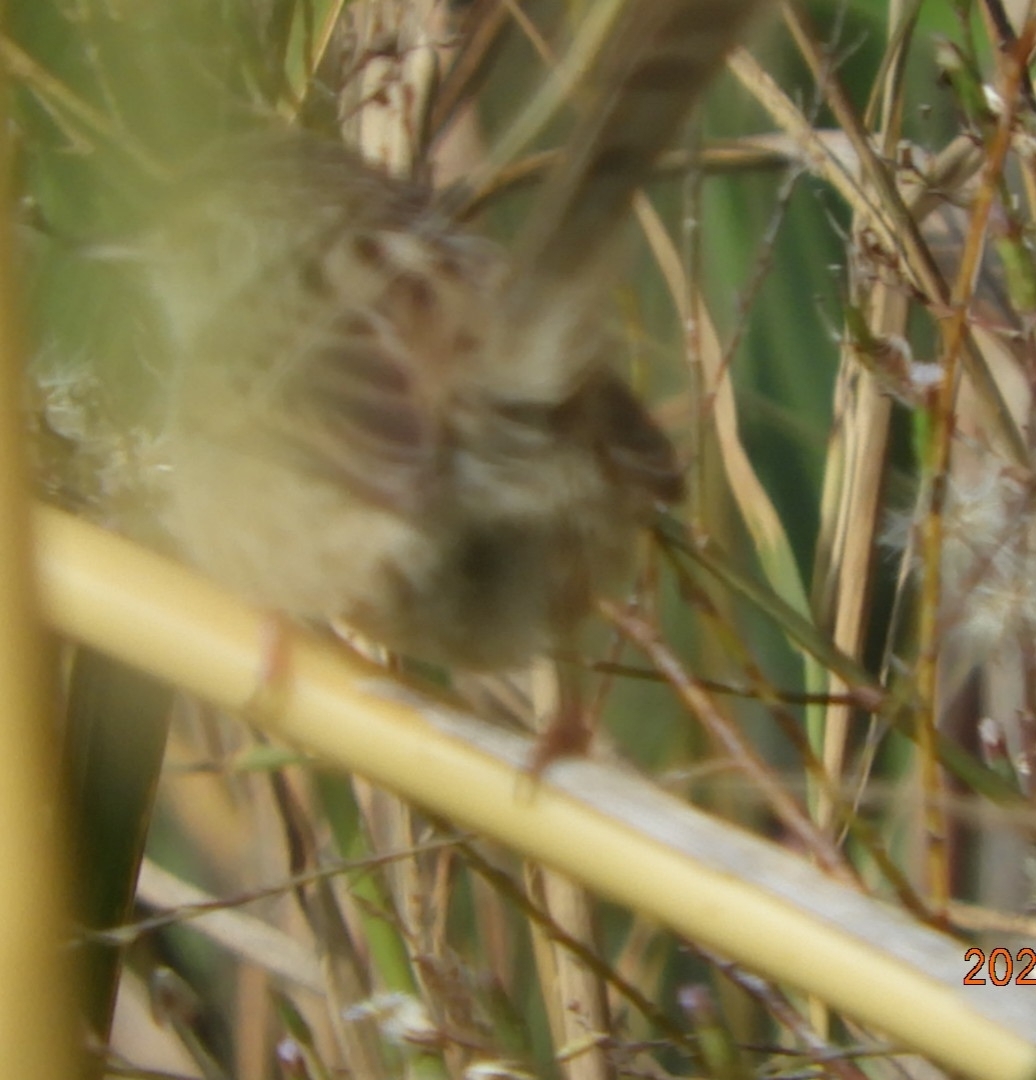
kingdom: Animalia
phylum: Chordata
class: Aves
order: Passeriformes
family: Cisticolidae
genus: Prinia
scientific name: Prinia gracilis
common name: Graceful prinia
